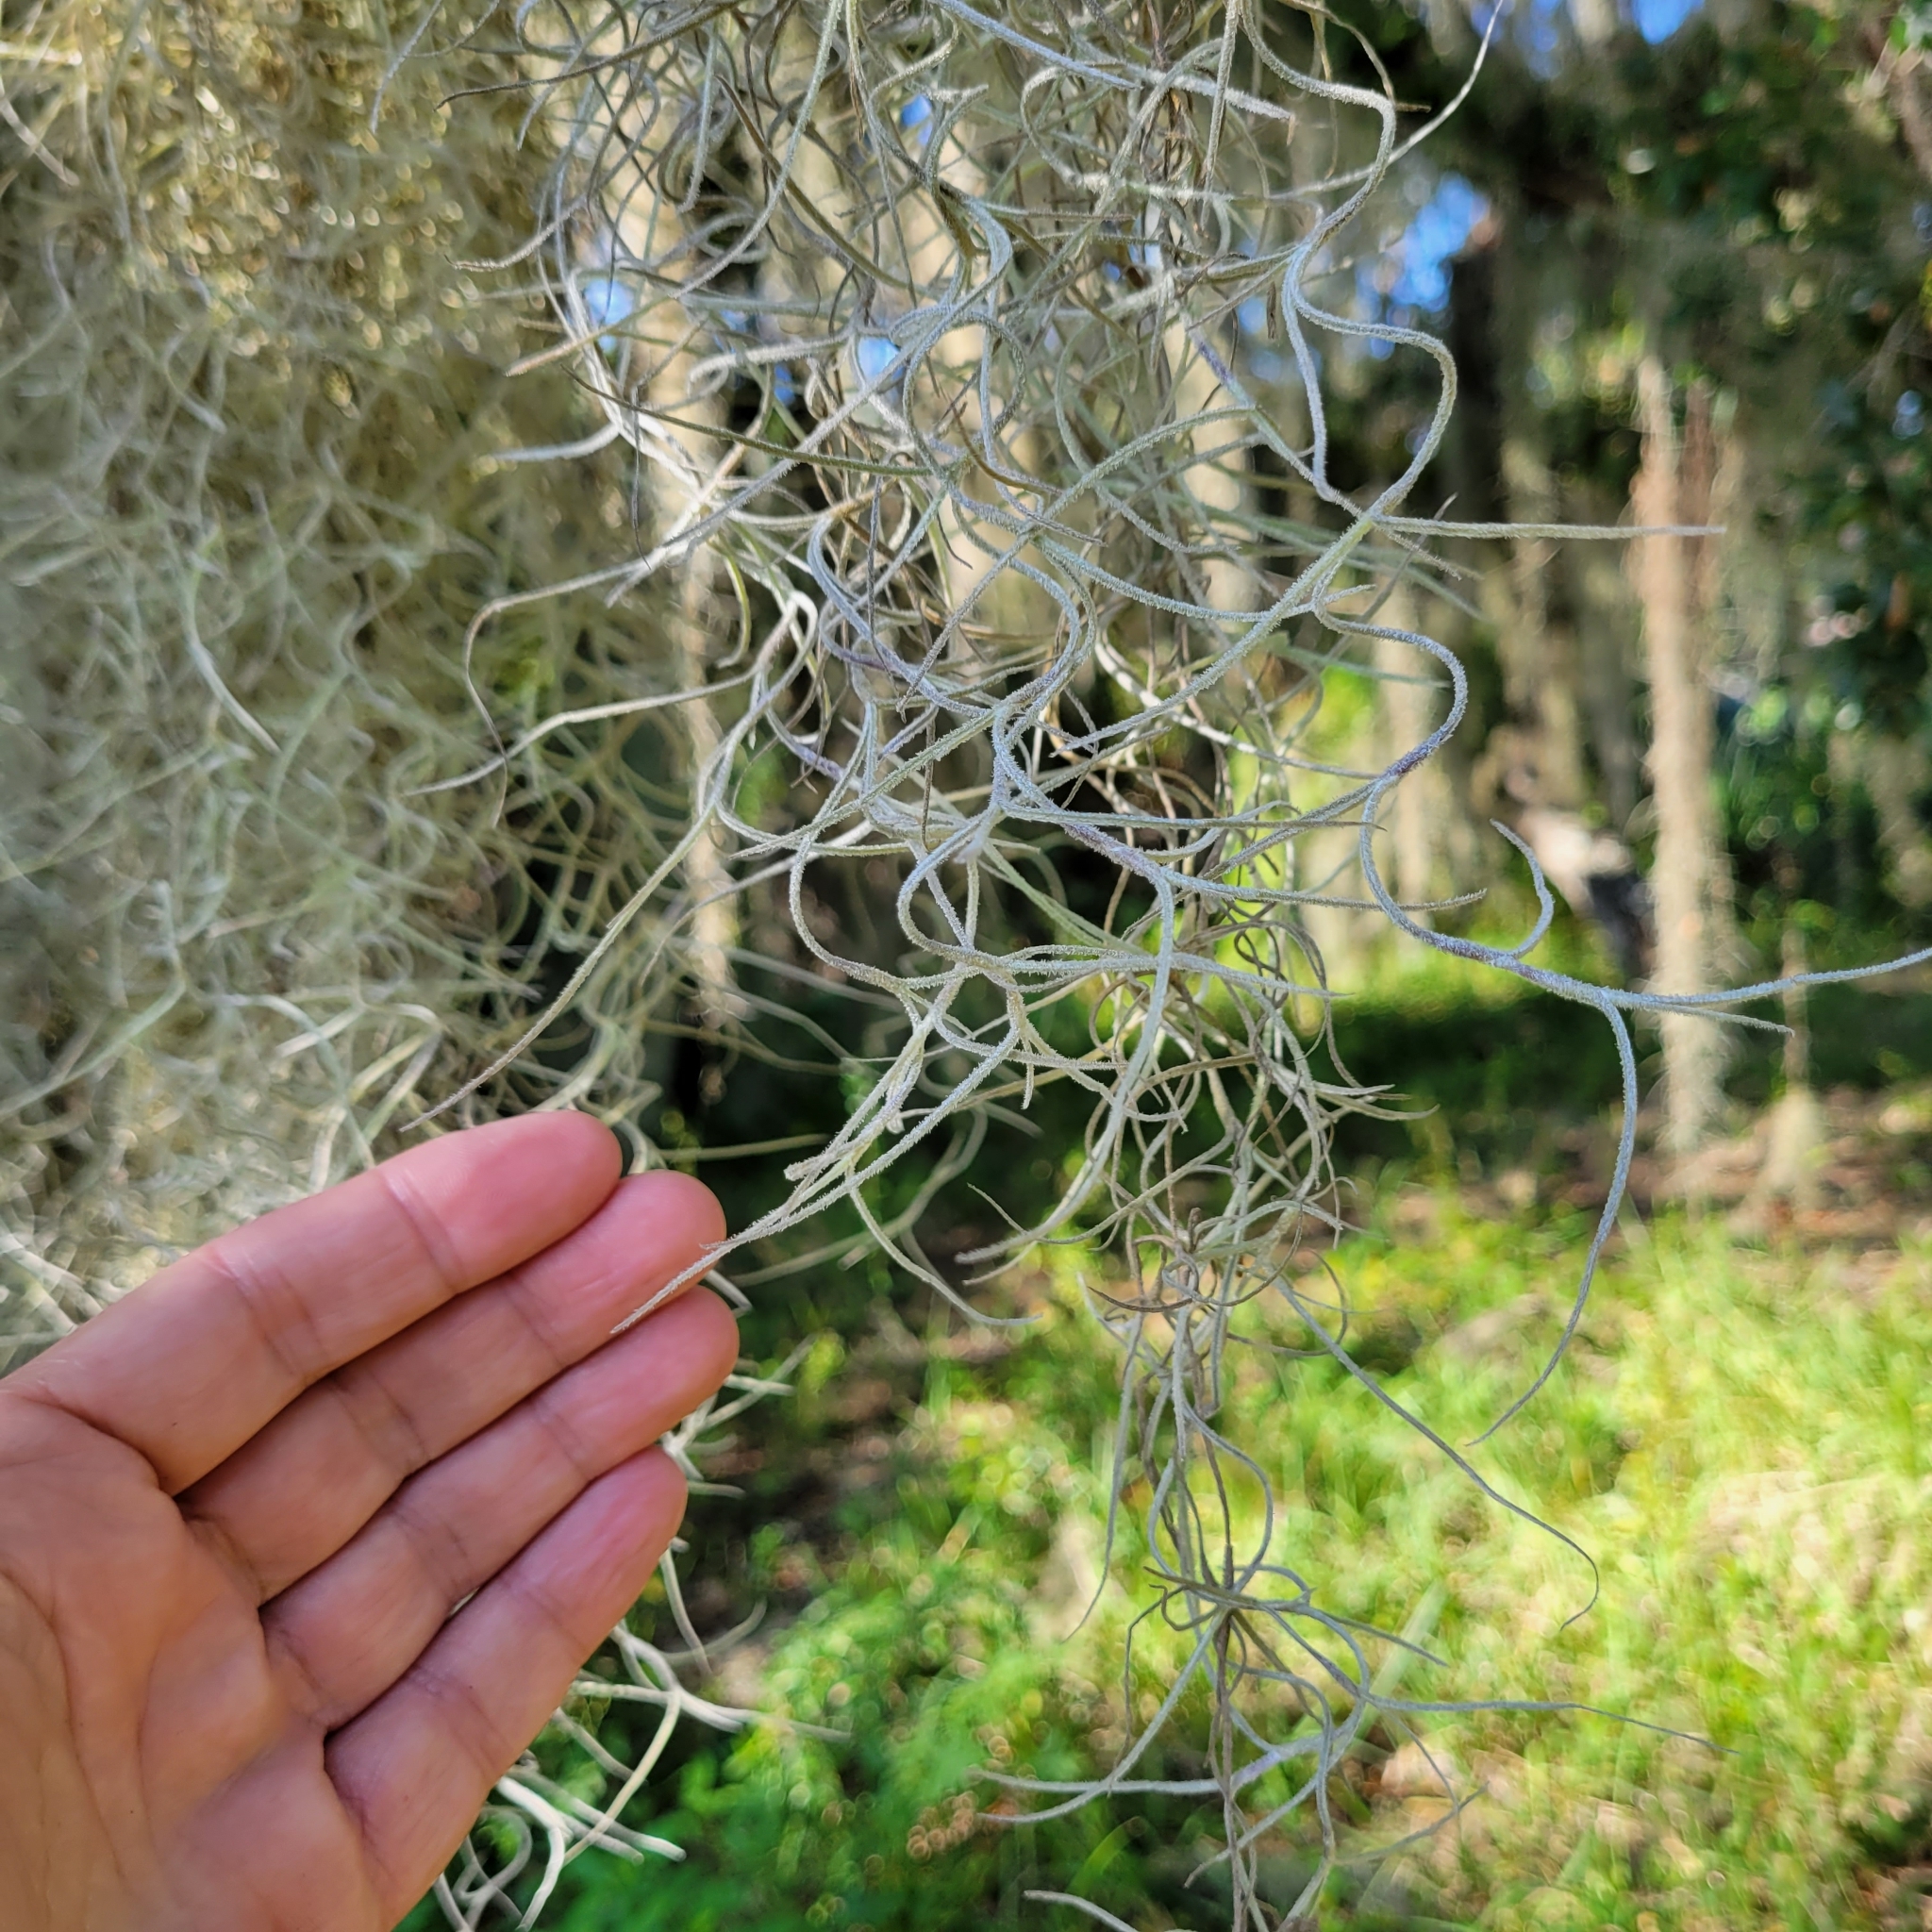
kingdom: Plantae
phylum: Tracheophyta
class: Liliopsida
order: Poales
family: Bromeliaceae
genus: Tillandsia
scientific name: Tillandsia usneoides
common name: Spanish moss
